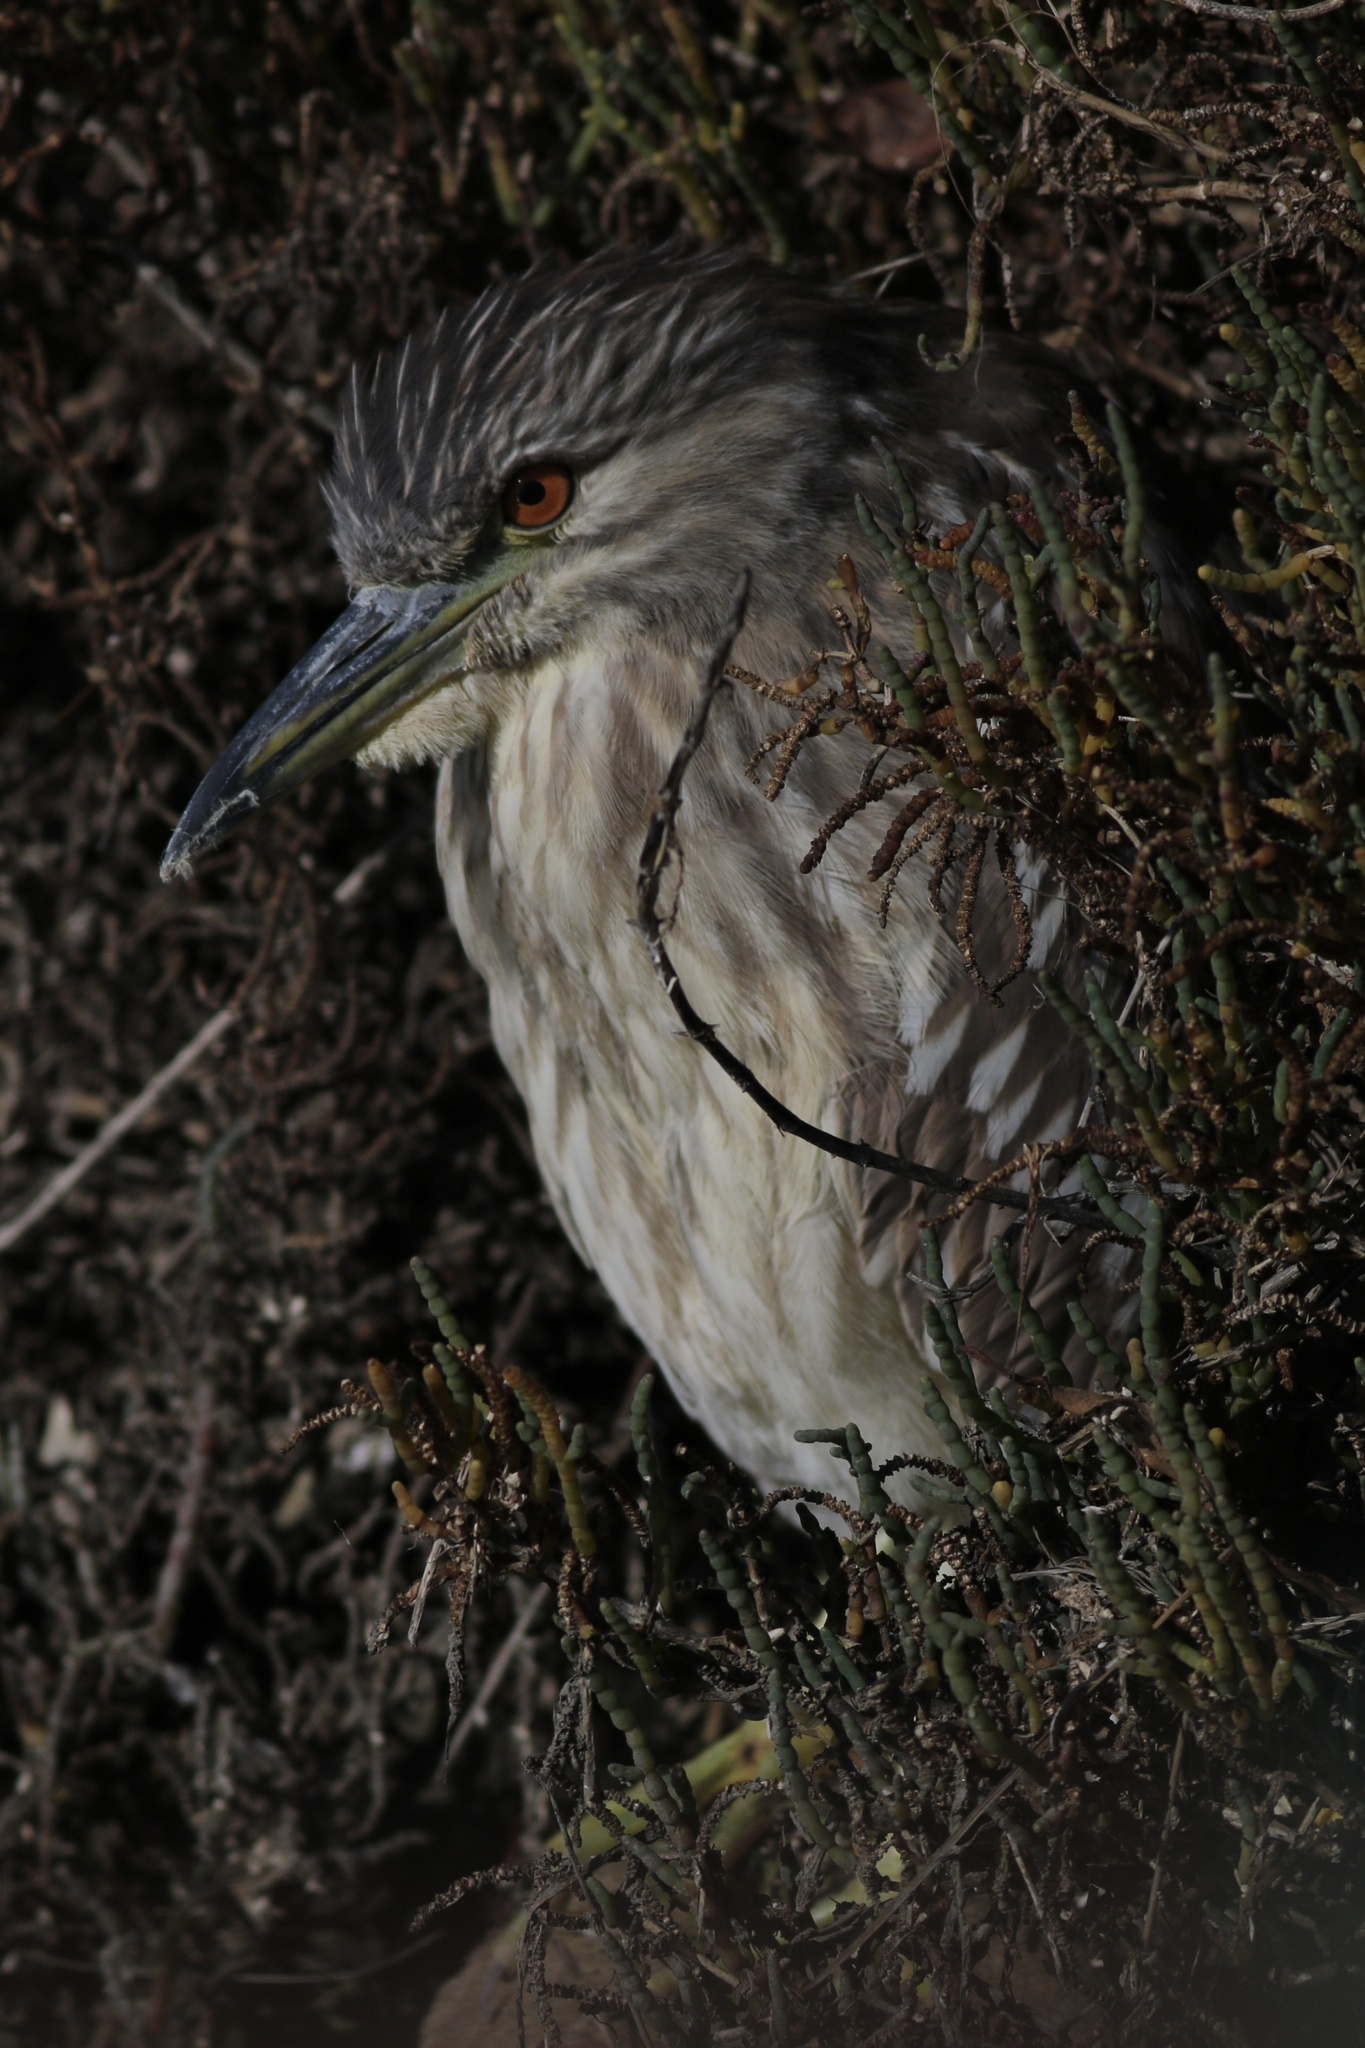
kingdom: Animalia
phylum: Chordata
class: Aves
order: Pelecaniformes
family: Ardeidae
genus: Nycticorax
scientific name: Nycticorax nycticorax
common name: Black-crowned night heron
